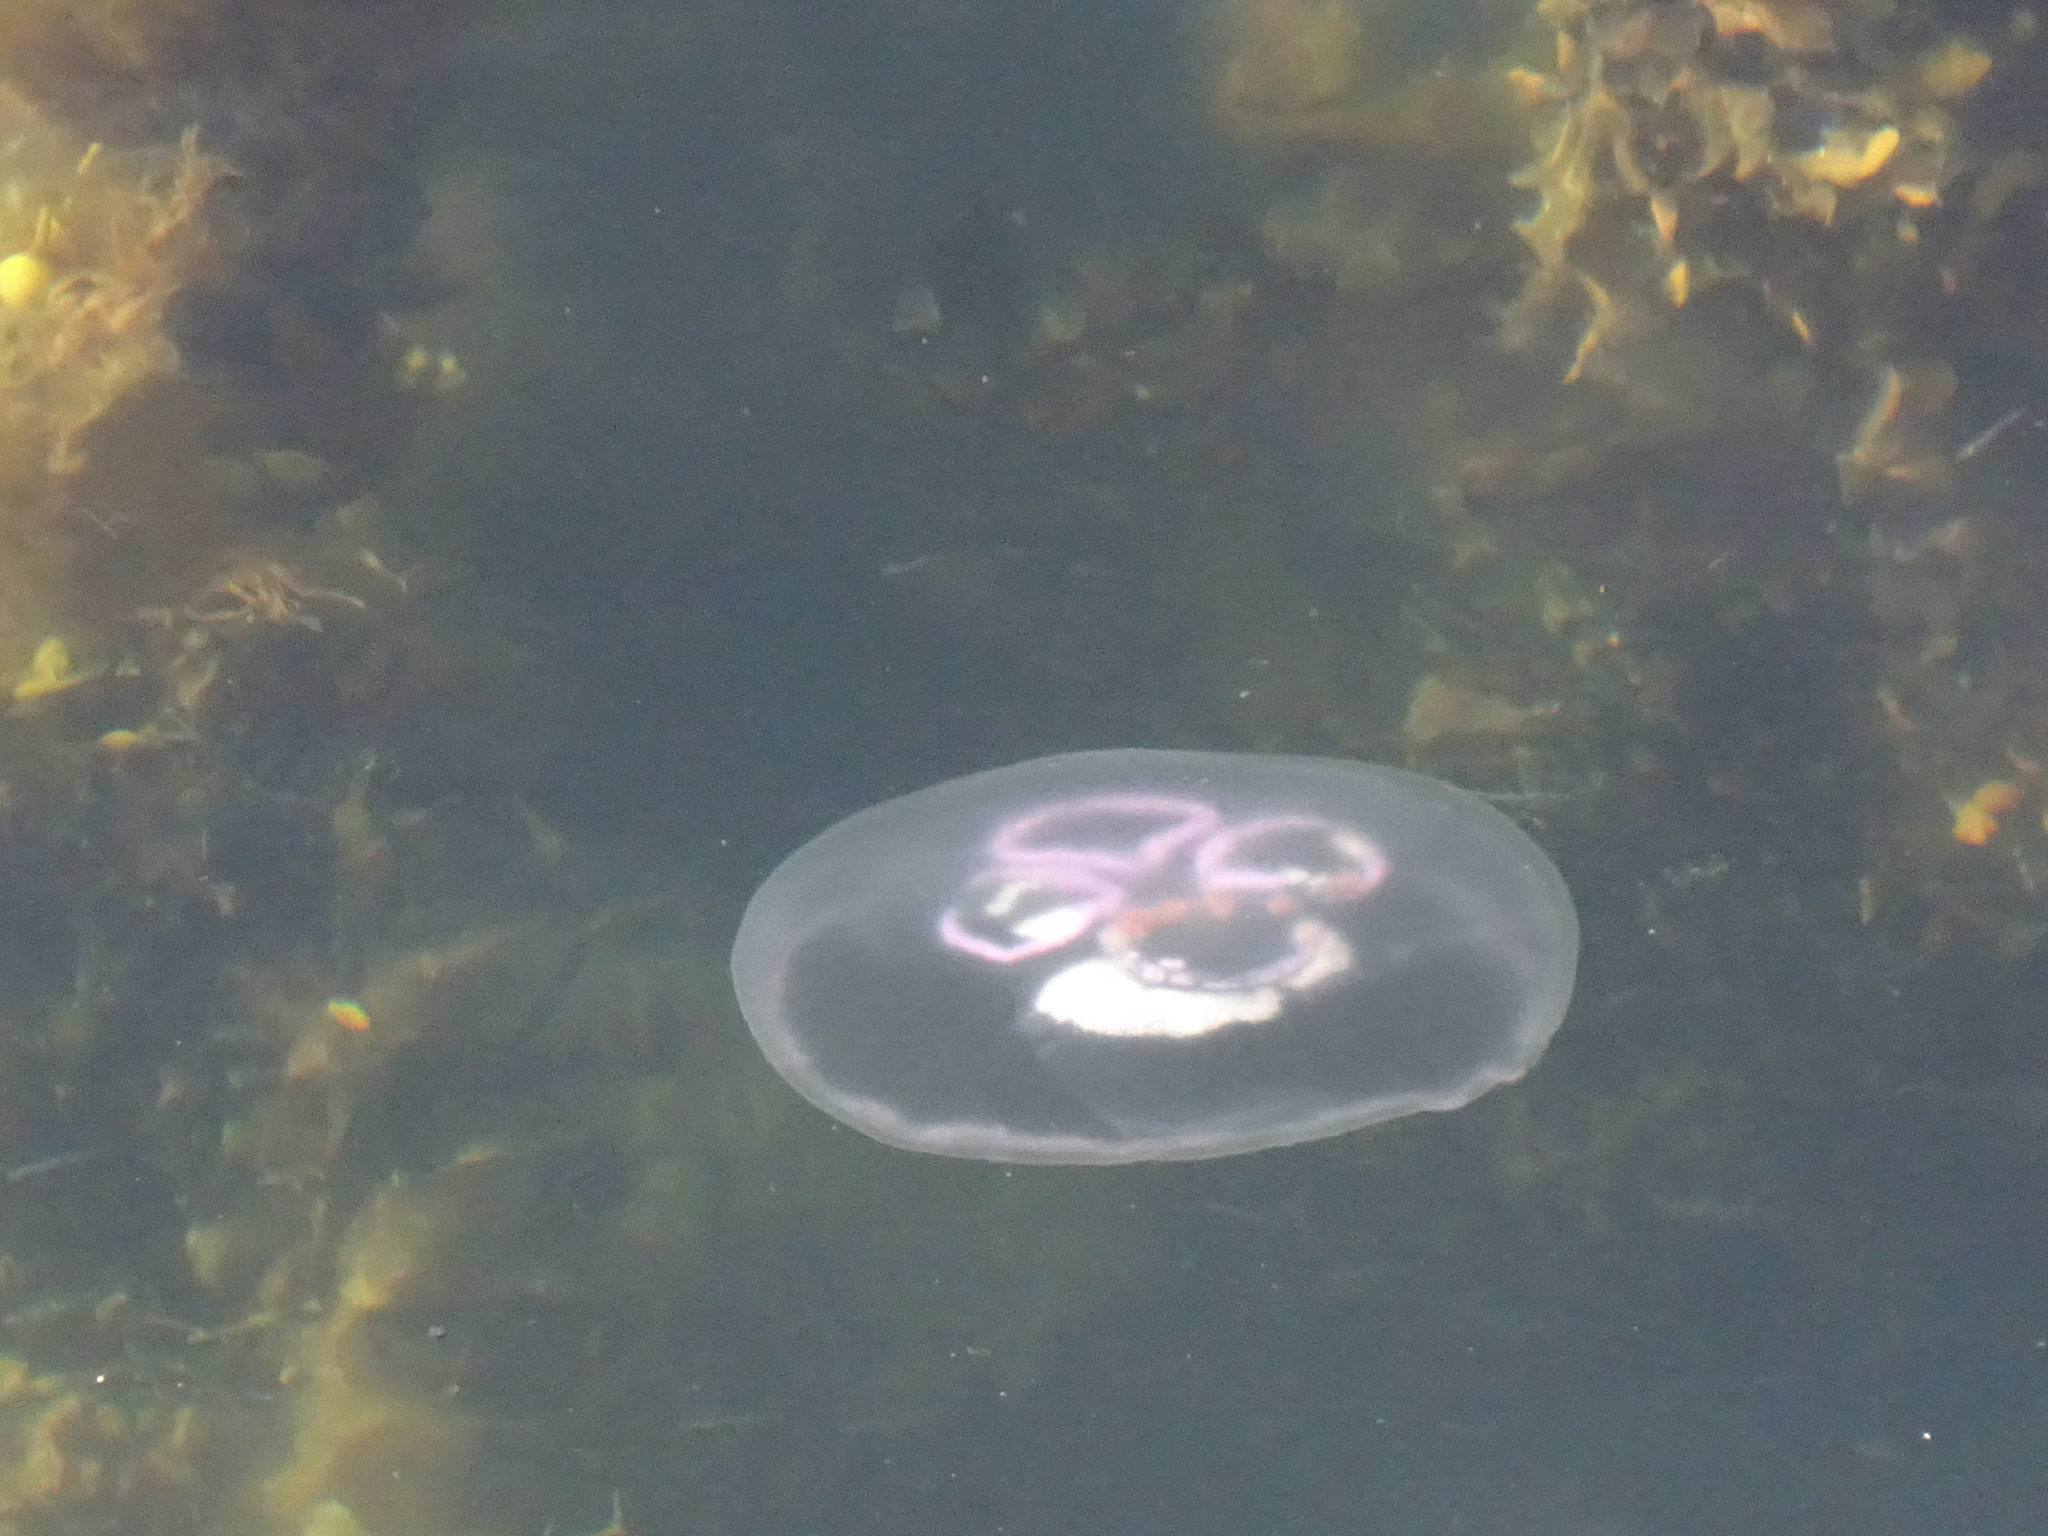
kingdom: Animalia
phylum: Cnidaria
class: Scyphozoa
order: Semaeostomeae
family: Ulmaridae
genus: Aurelia
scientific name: Aurelia aurita
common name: Moon jellyfish
